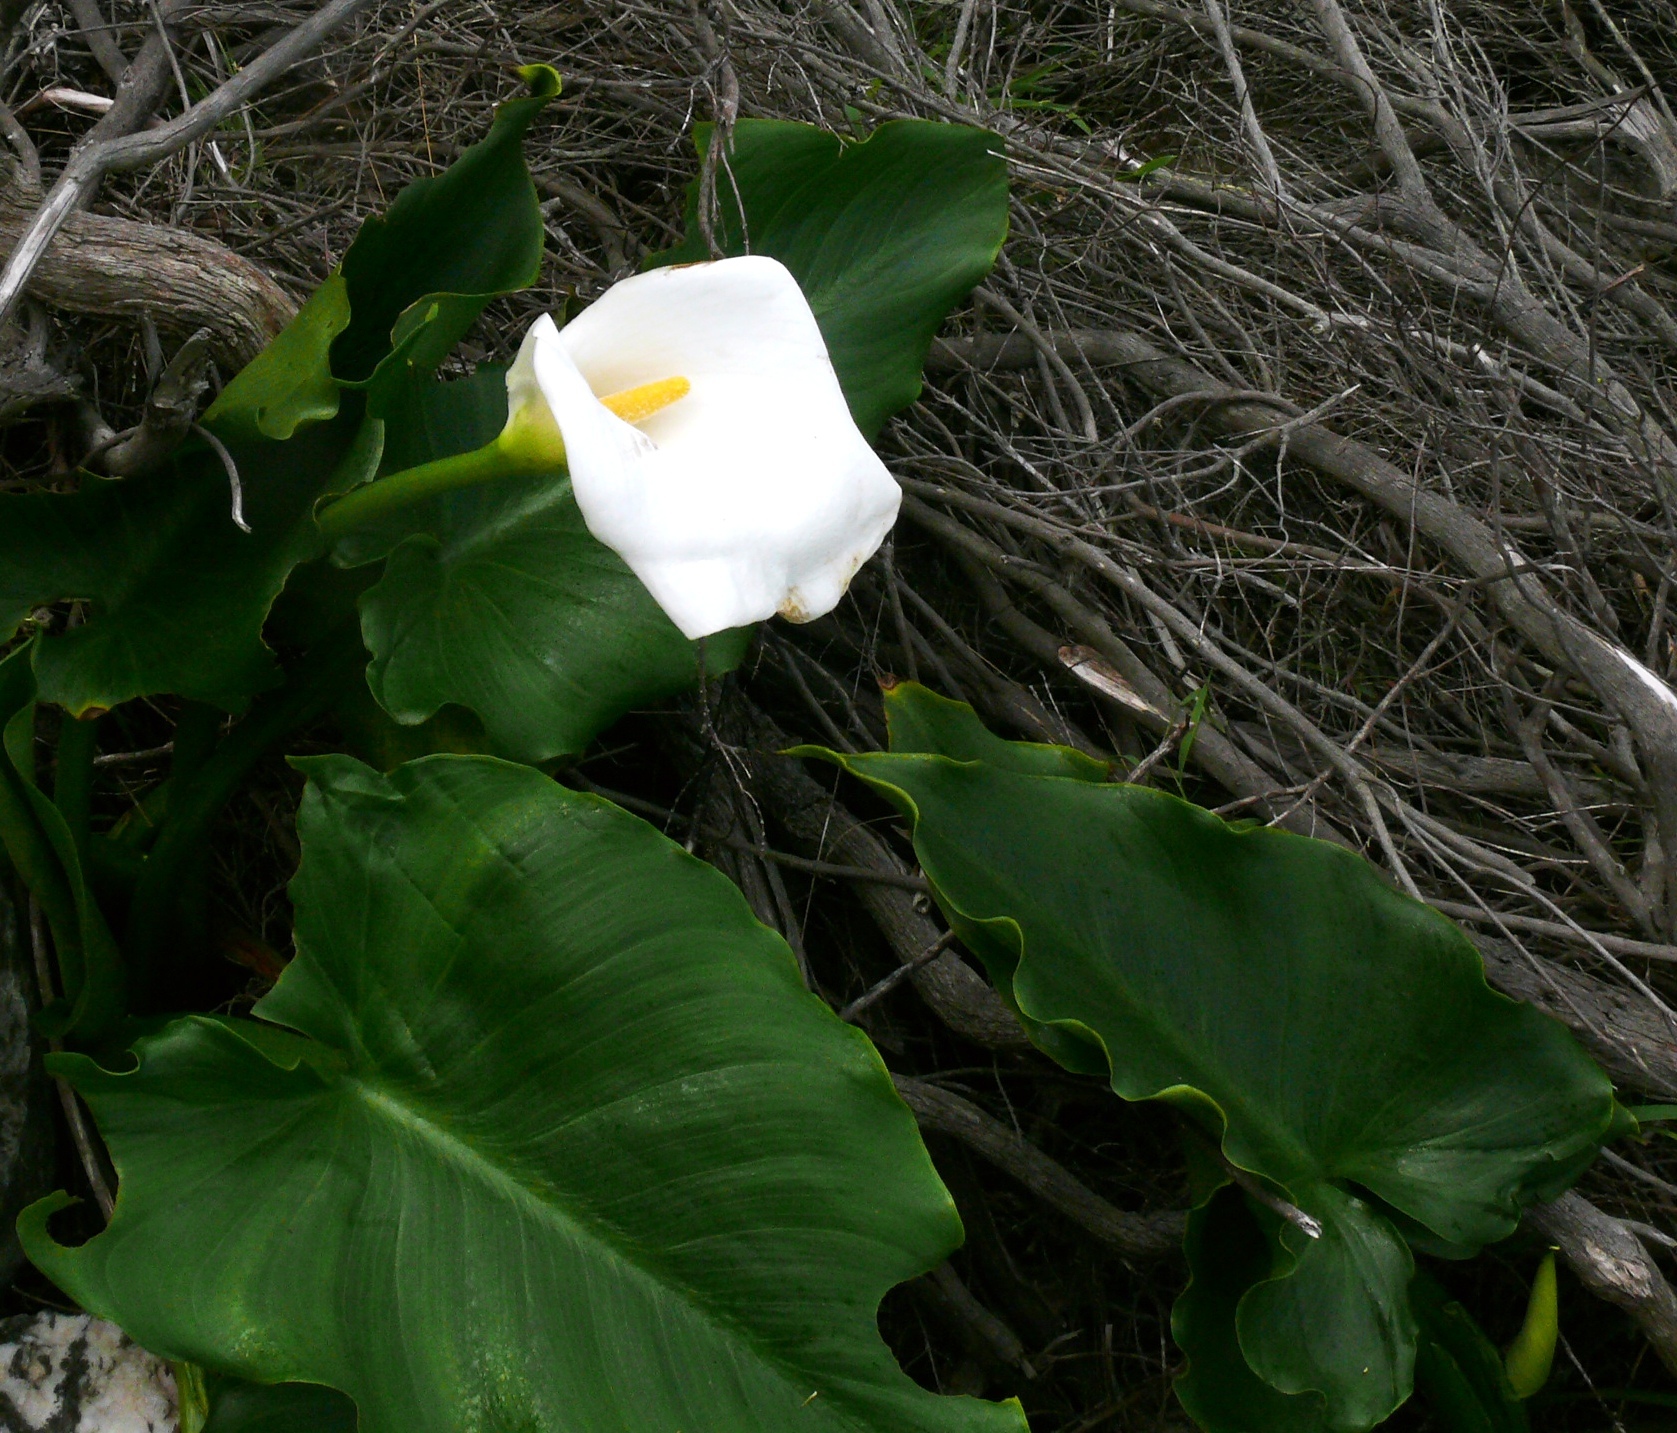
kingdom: Plantae
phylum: Tracheophyta
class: Liliopsida
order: Alismatales
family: Araceae
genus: Zantedeschia
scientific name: Zantedeschia aethiopica
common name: Altar-lily
